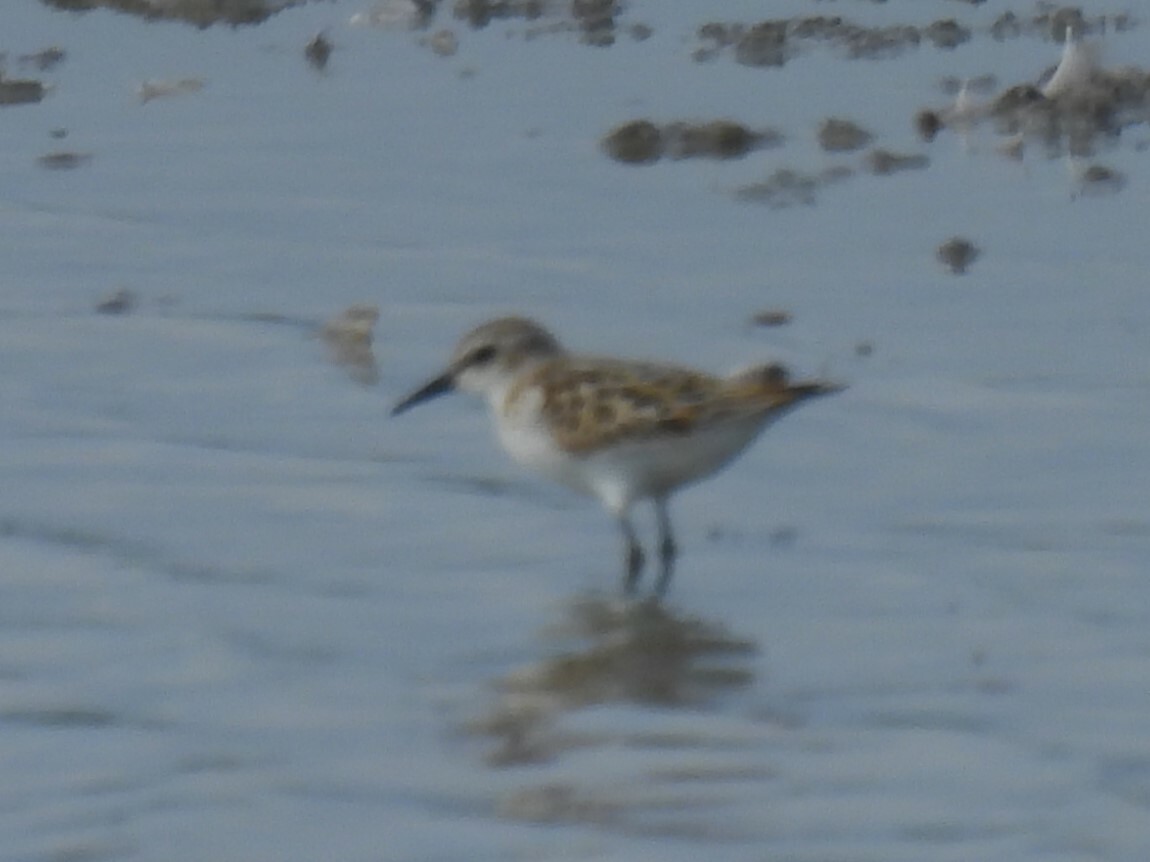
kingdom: Animalia
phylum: Chordata
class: Aves
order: Charadriiformes
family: Scolopacidae
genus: Calidris
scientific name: Calidris minuta
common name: Little stint
